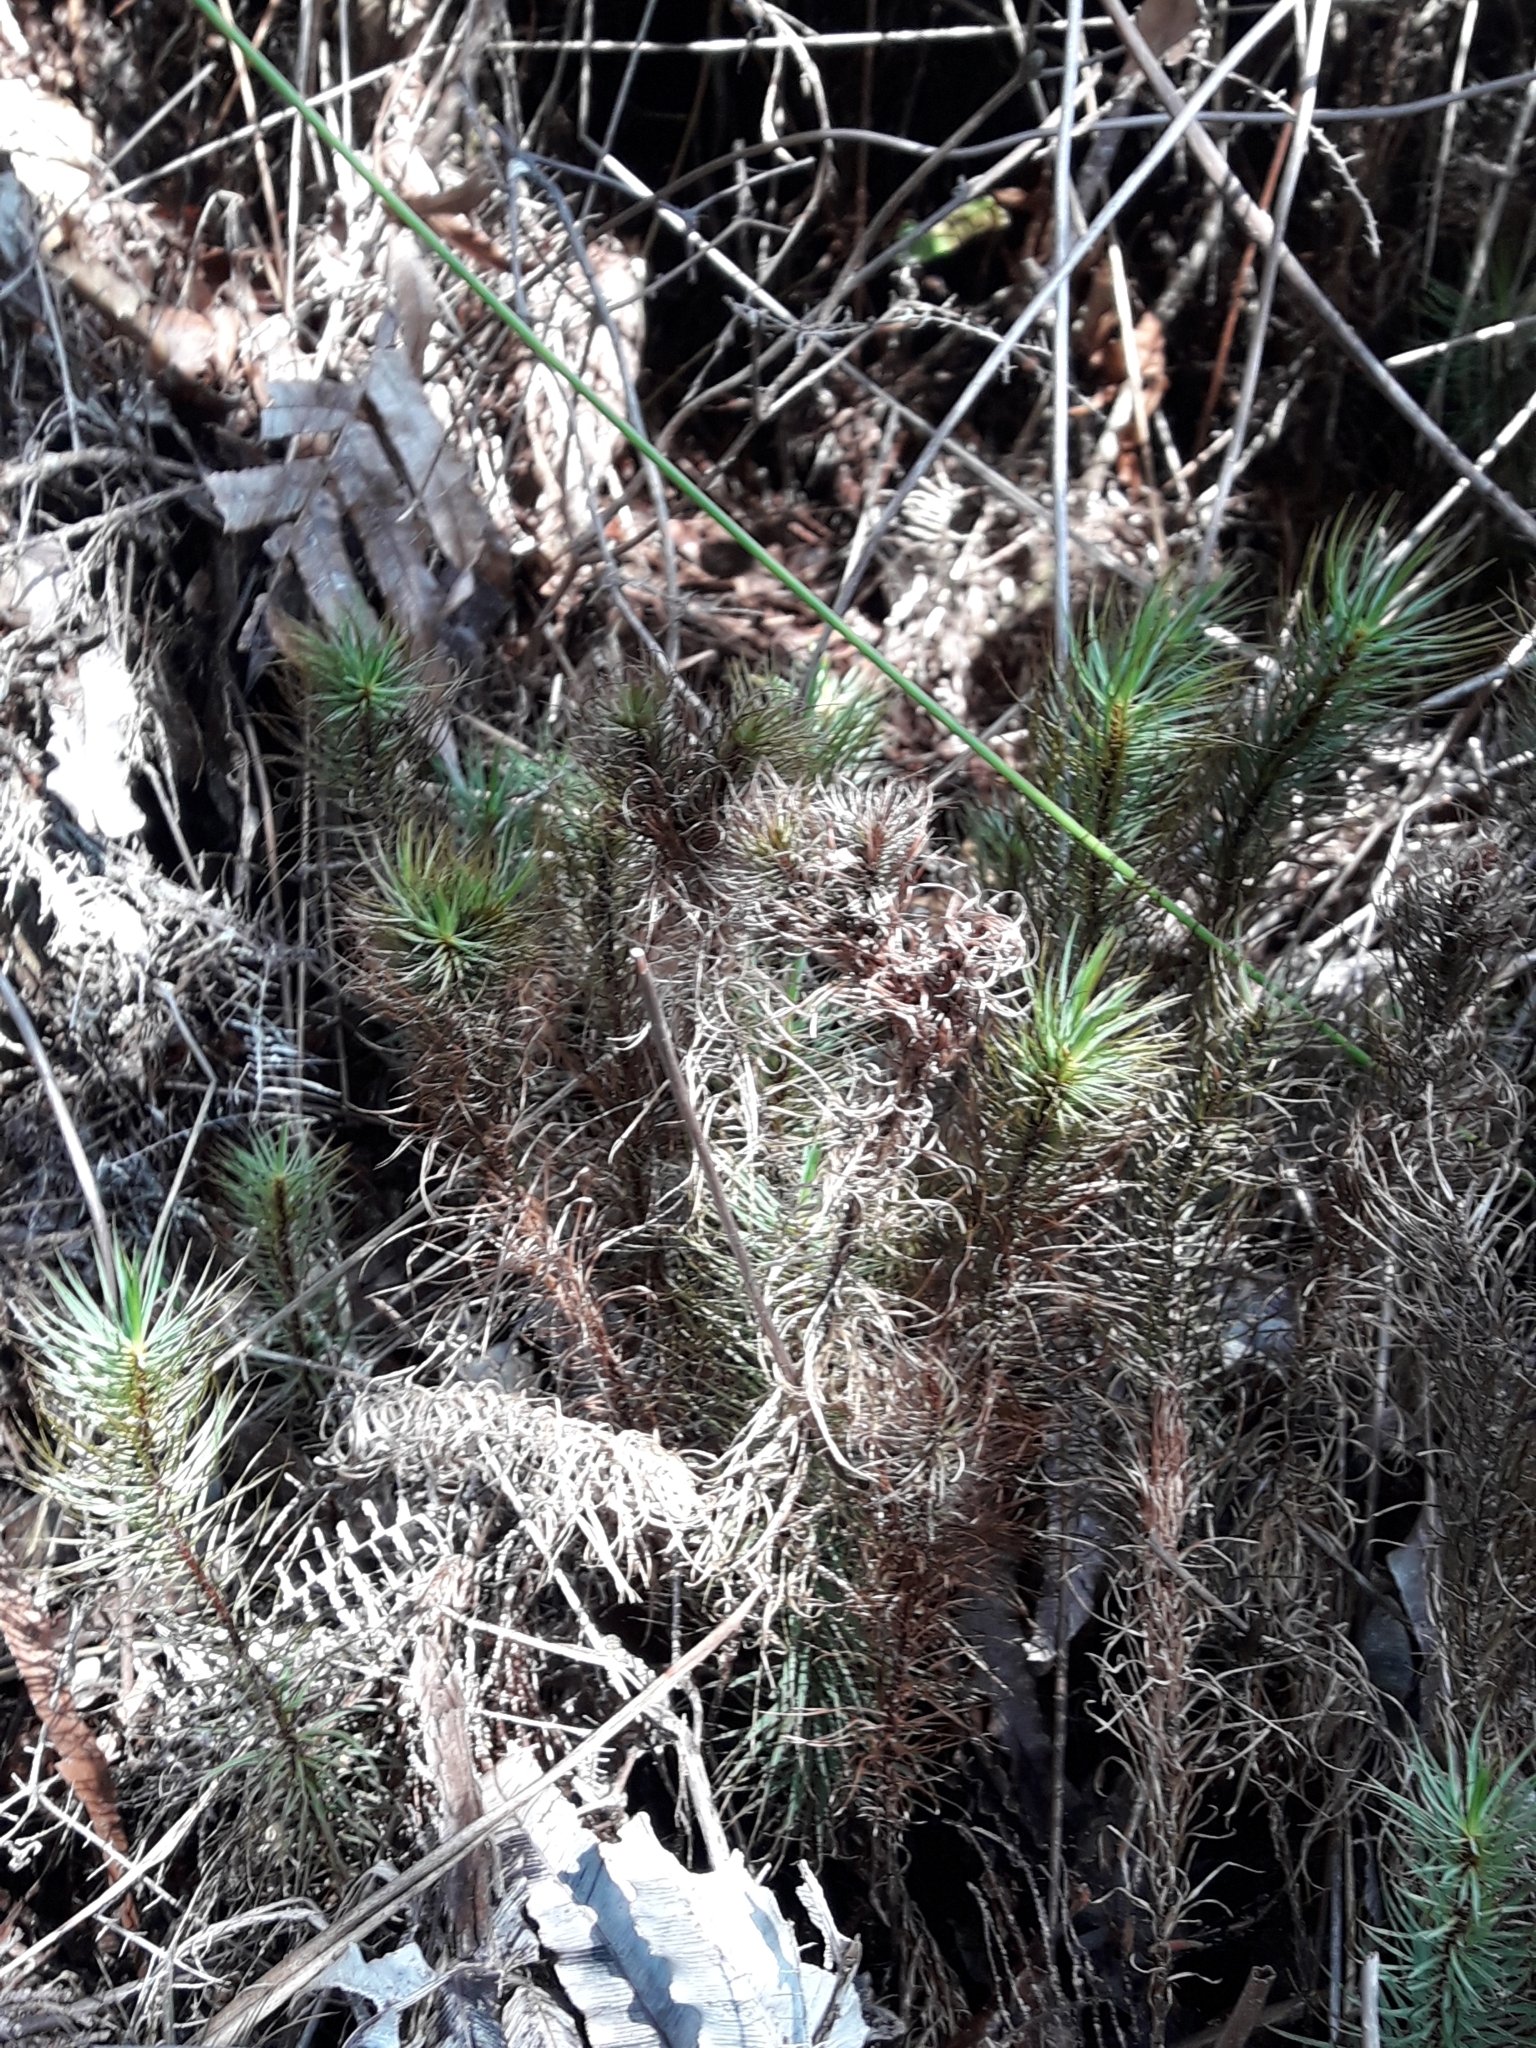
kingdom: Plantae
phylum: Bryophyta
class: Polytrichopsida
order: Polytrichales
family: Polytrichaceae
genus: Dawsonia
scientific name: Dawsonia superba
